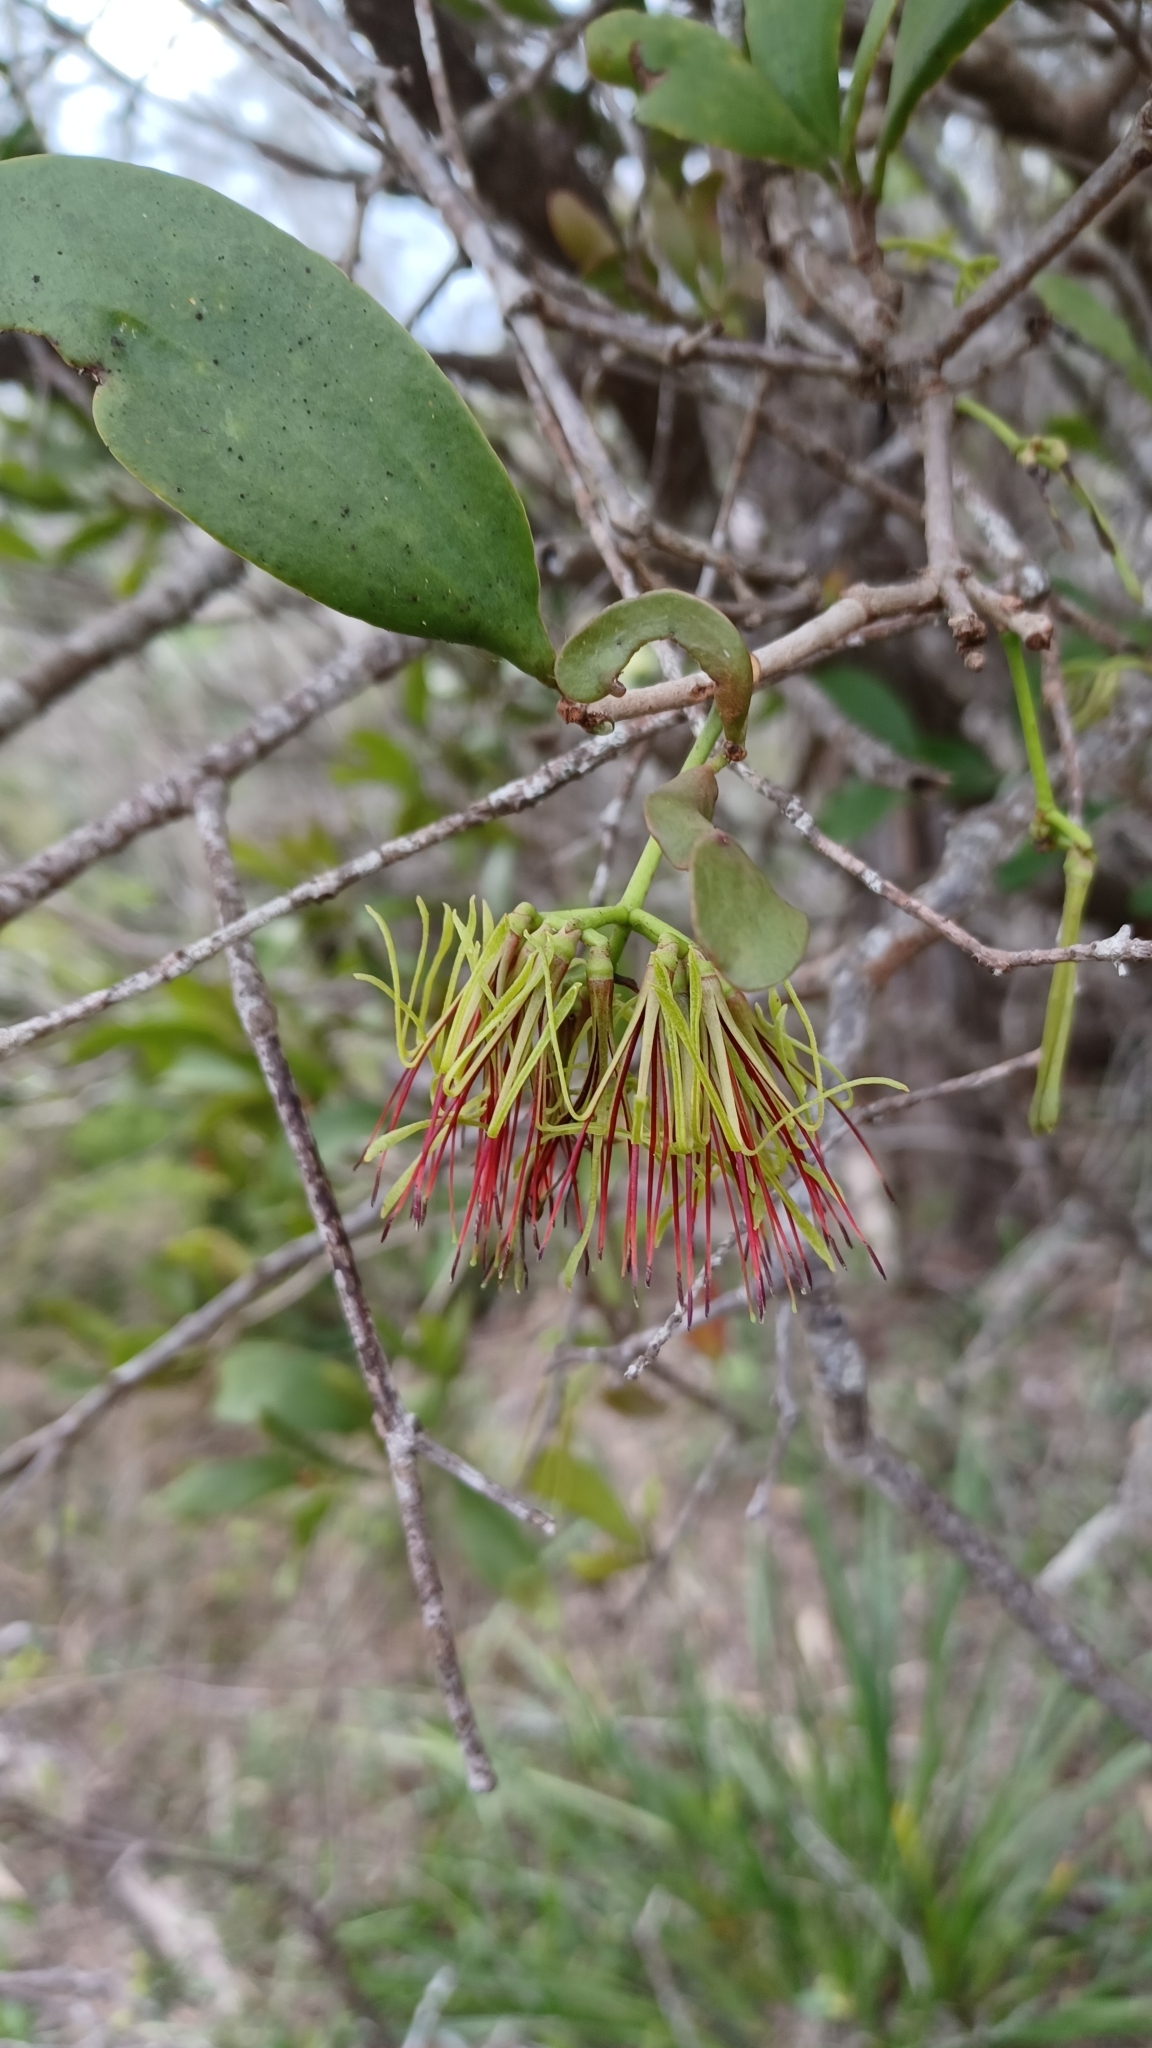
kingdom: Plantae
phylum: Tracheophyta
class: Magnoliopsida
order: Santalales
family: Loranthaceae
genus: Amyema
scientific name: Amyema congener
